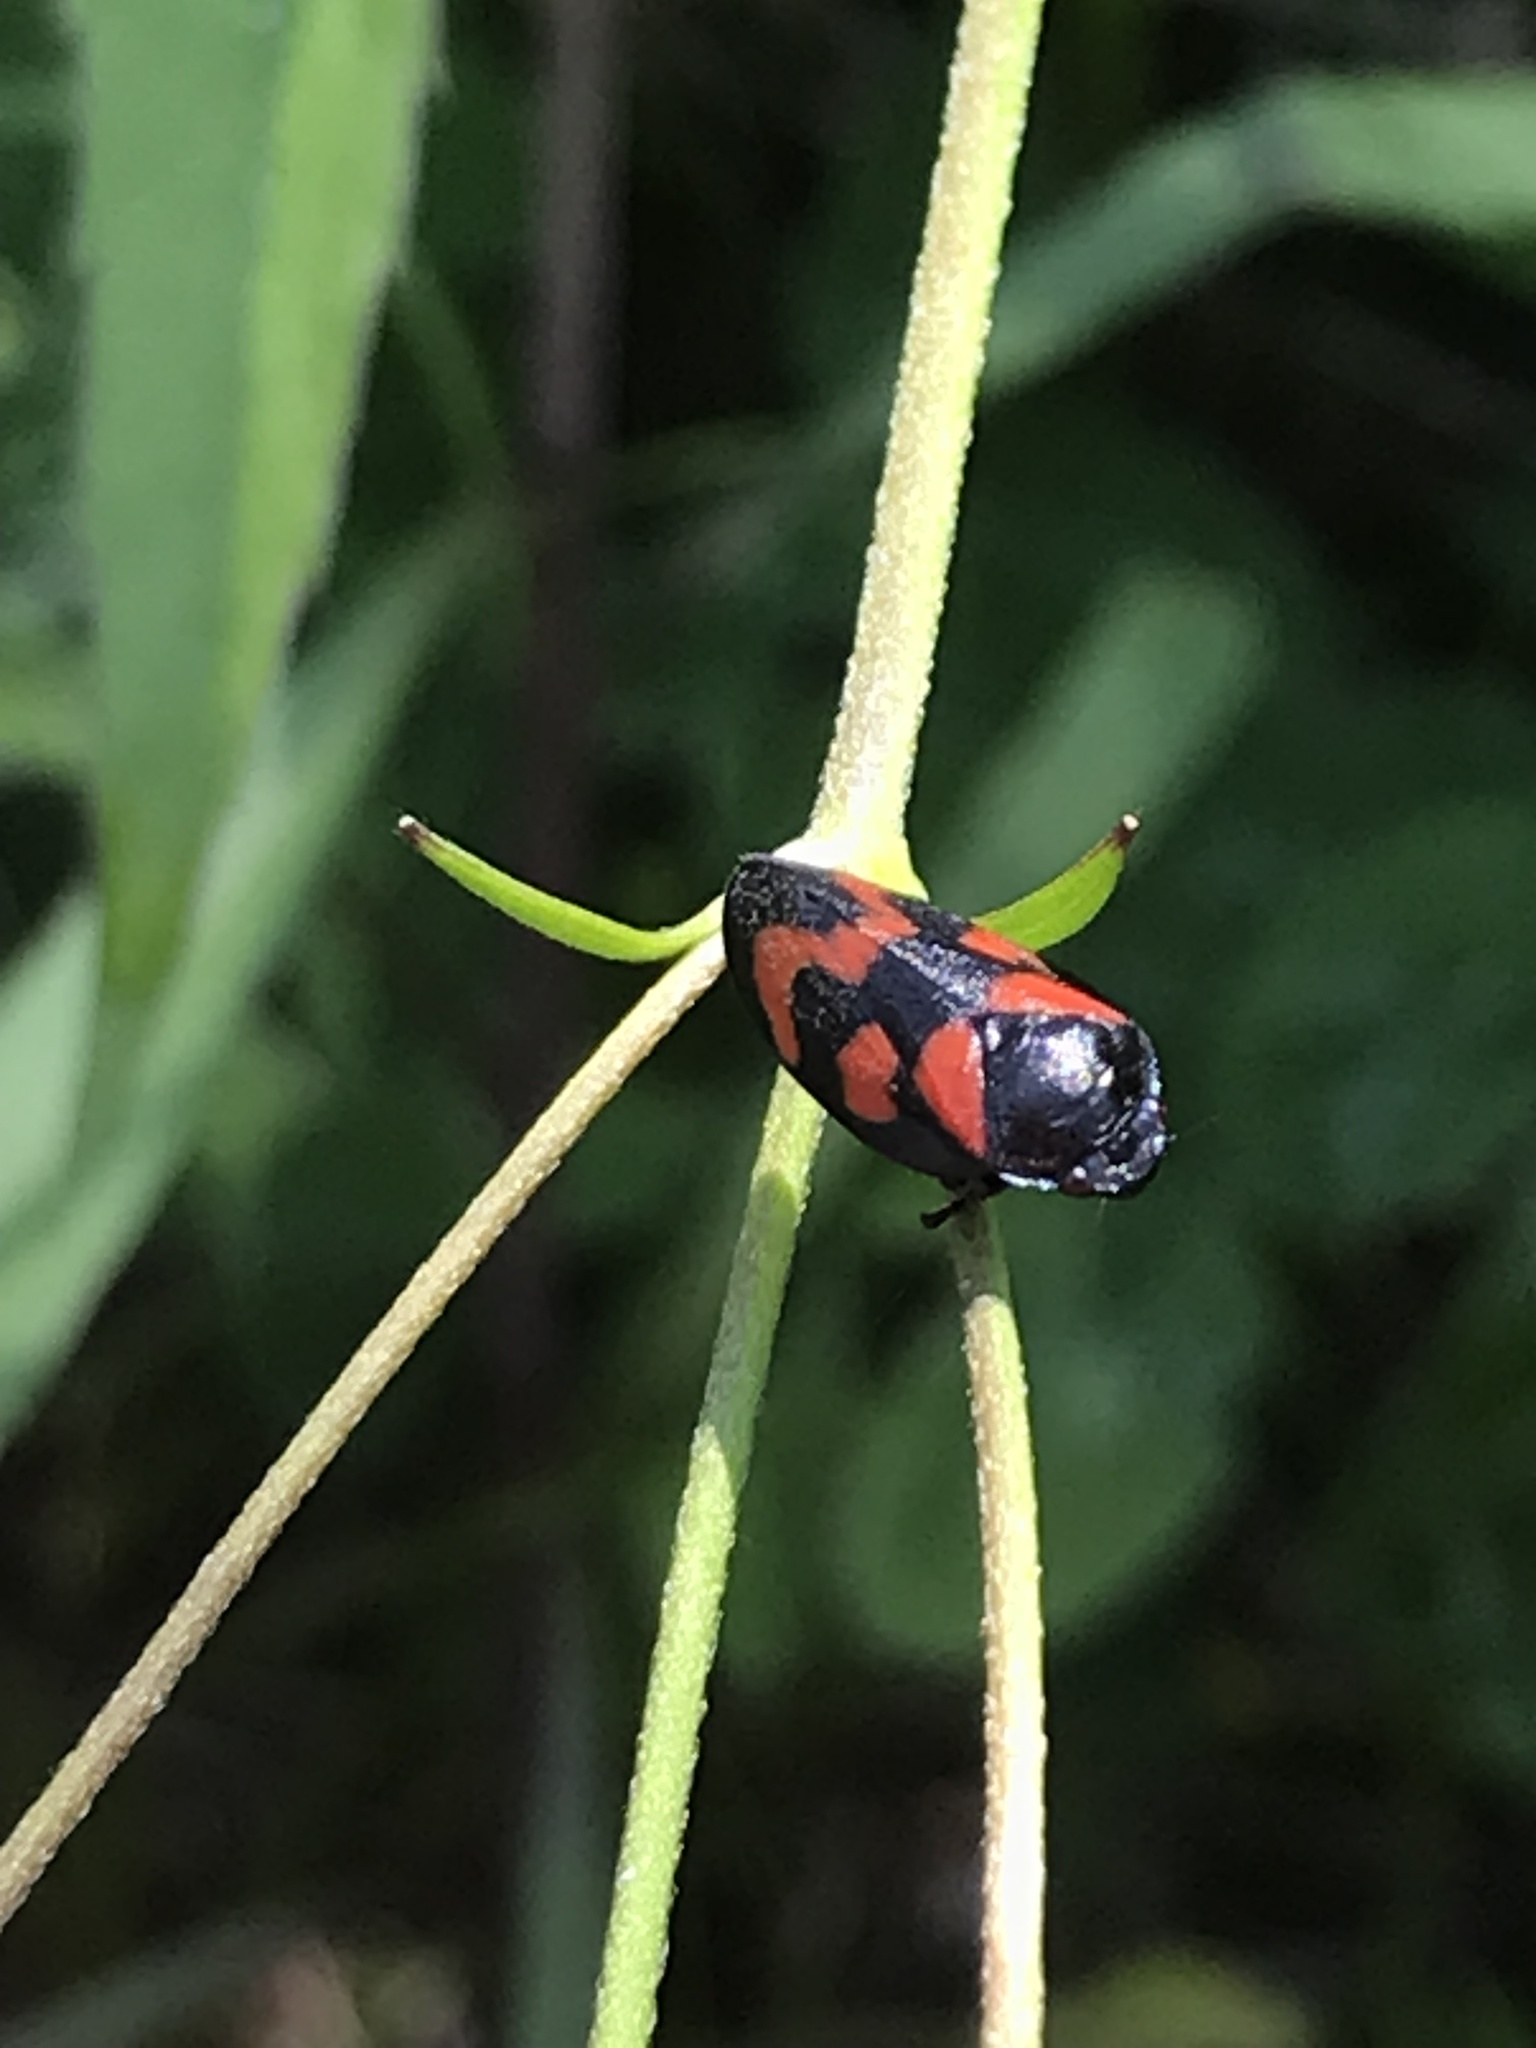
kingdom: Animalia
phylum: Arthropoda
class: Insecta
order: Hemiptera
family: Cercopidae
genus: Cercopis
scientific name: Cercopis vulnerata
